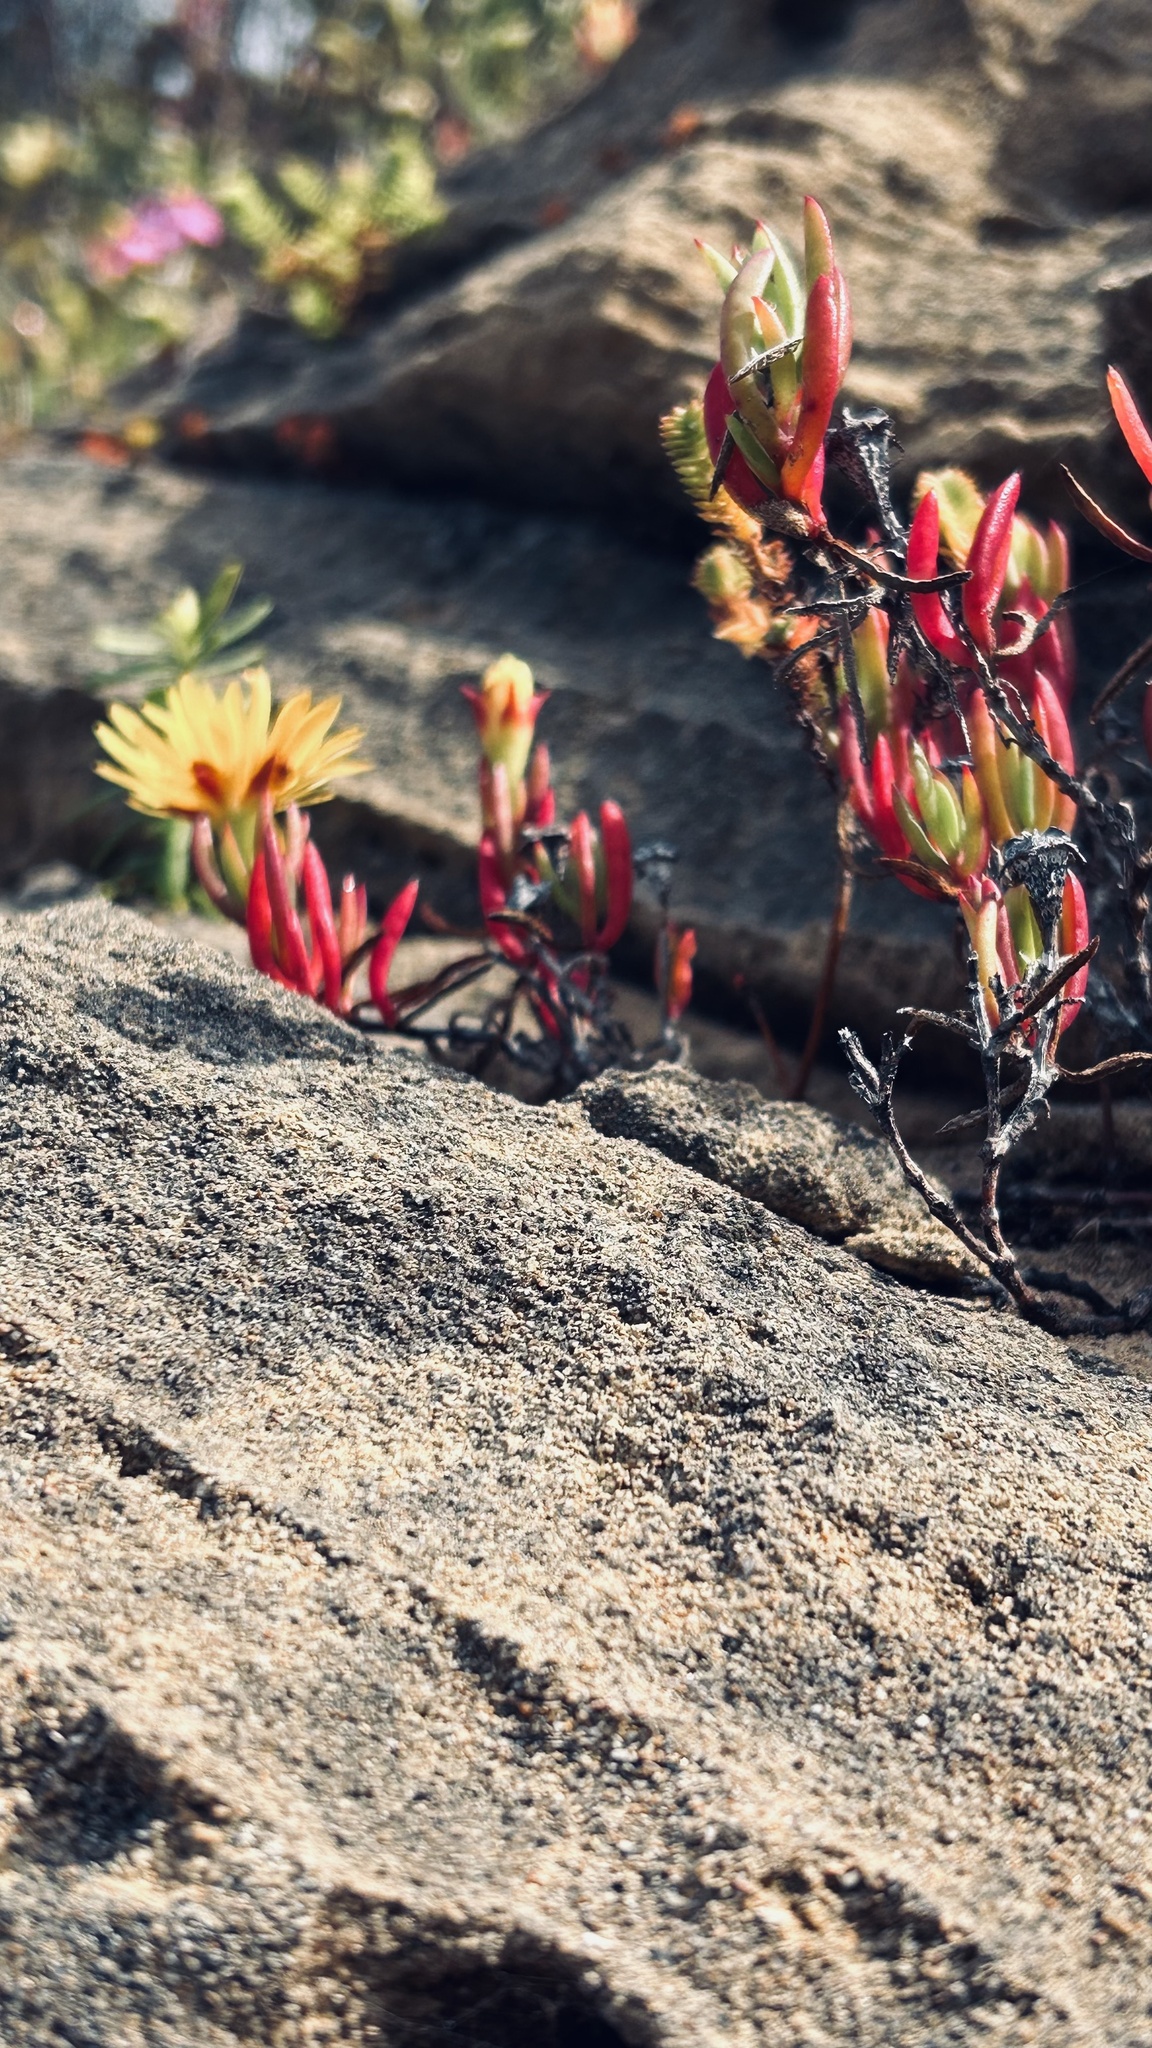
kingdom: Plantae
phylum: Tracheophyta
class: Magnoliopsida
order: Caryophyllales
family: Aizoaceae
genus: Lampranthus
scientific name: Lampranthus explanatus
